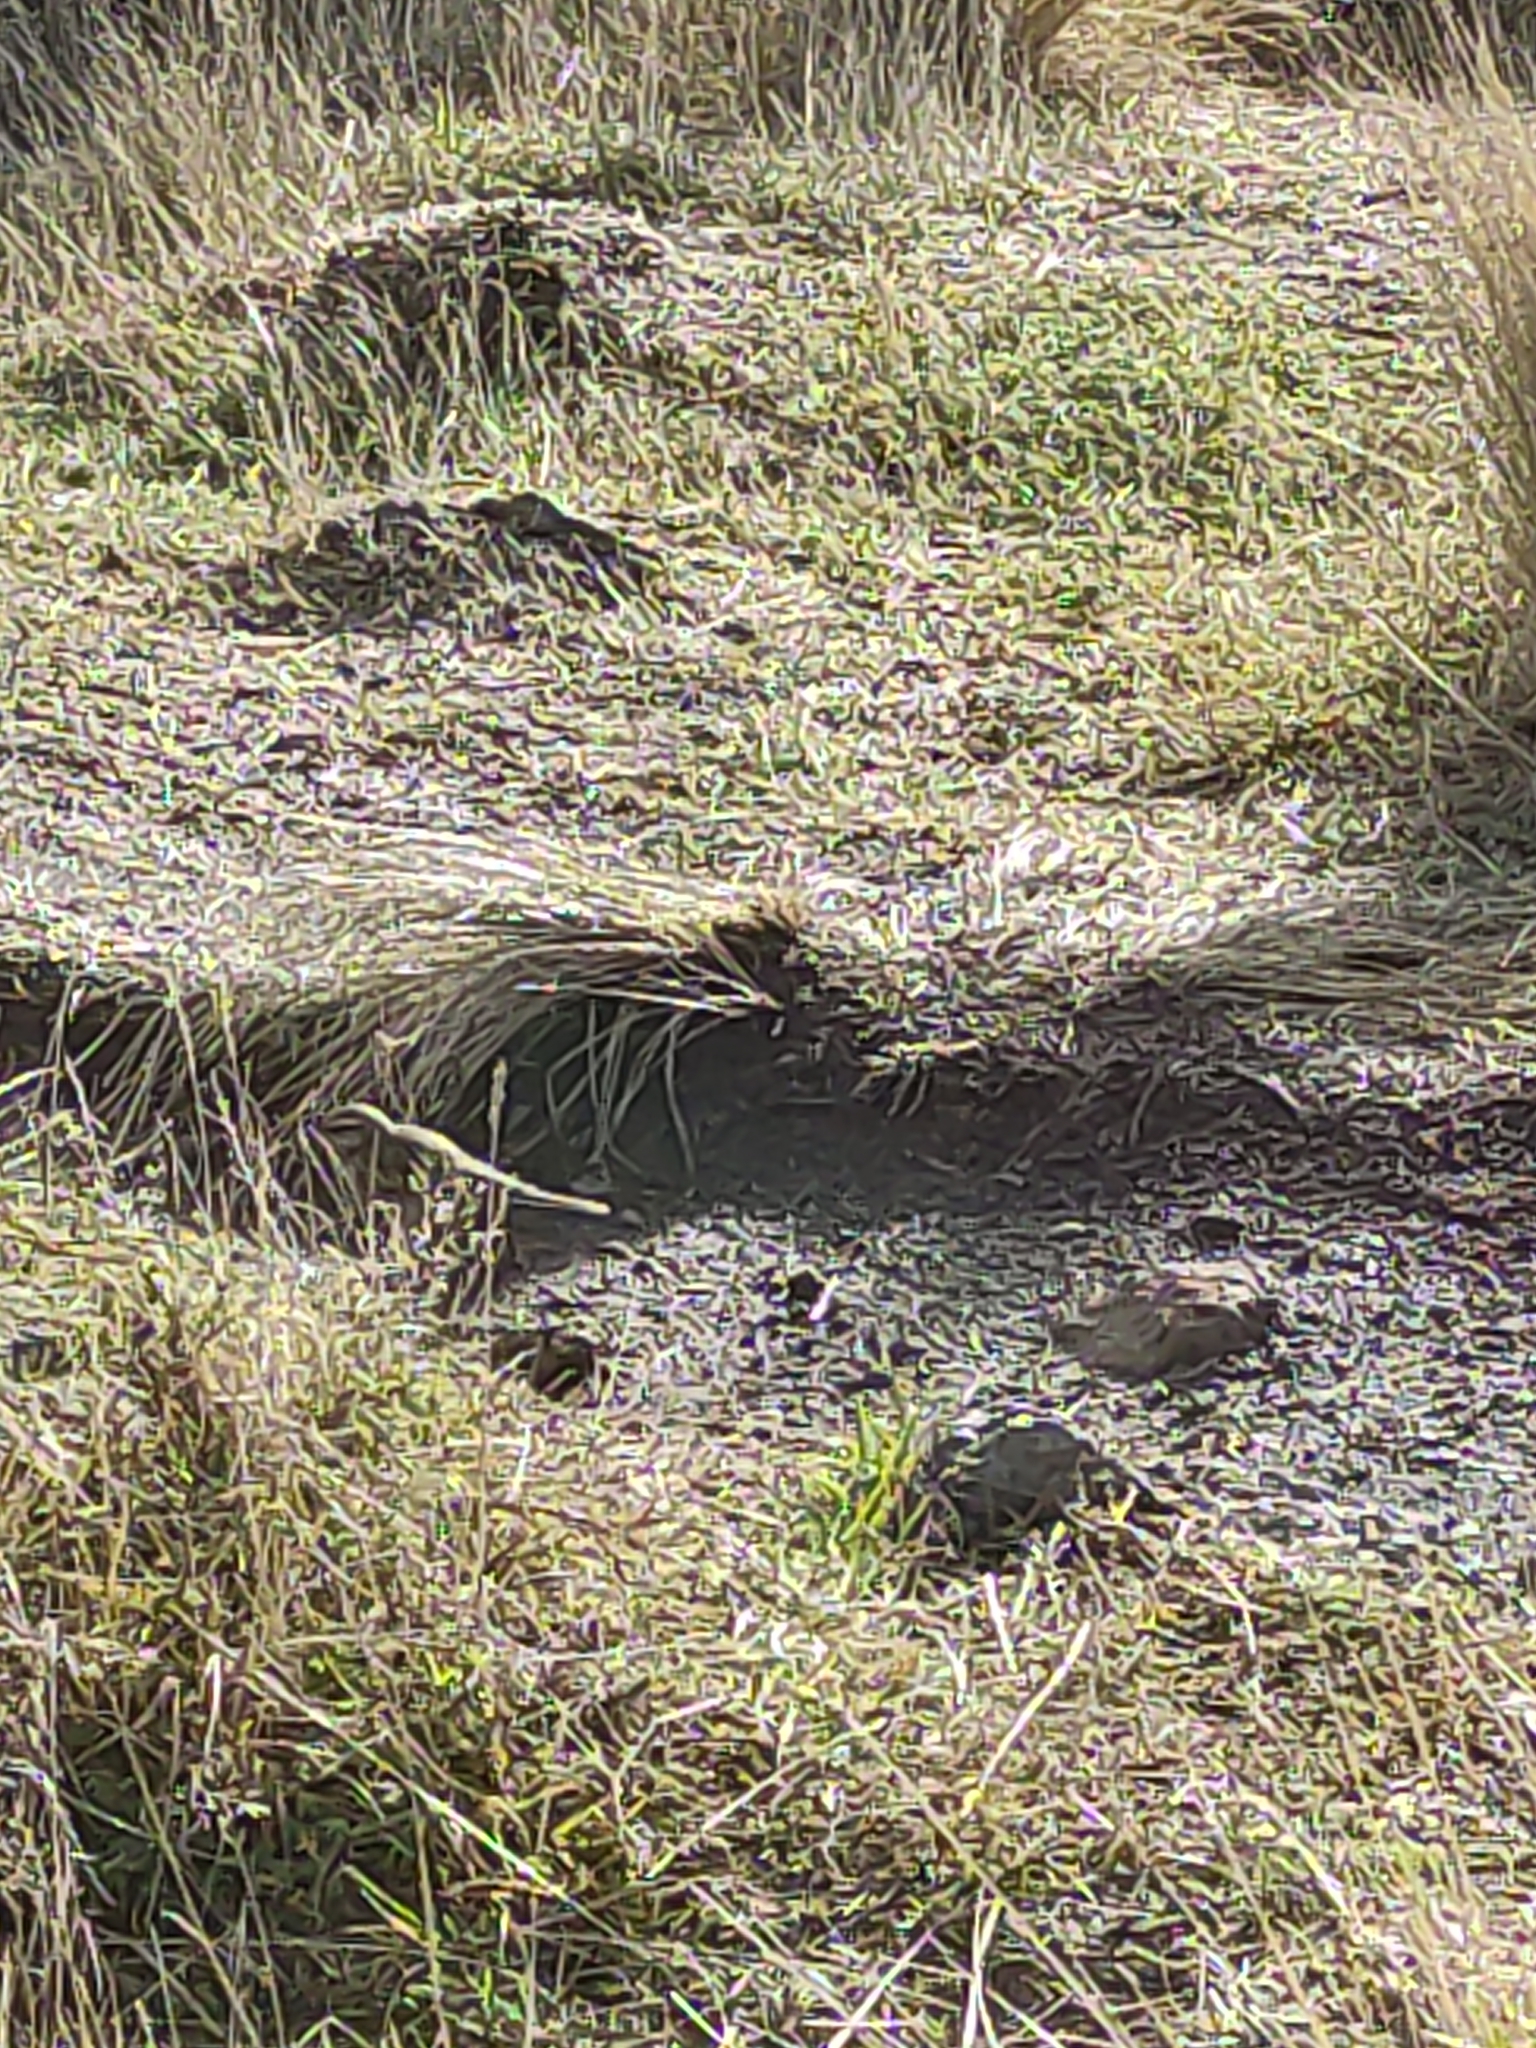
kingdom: Animalia
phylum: Chordata
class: Aves
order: Passeriformes
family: Motacillidae
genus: Anthus
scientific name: Anthus novaeseelandiae
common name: New zealand pipit
